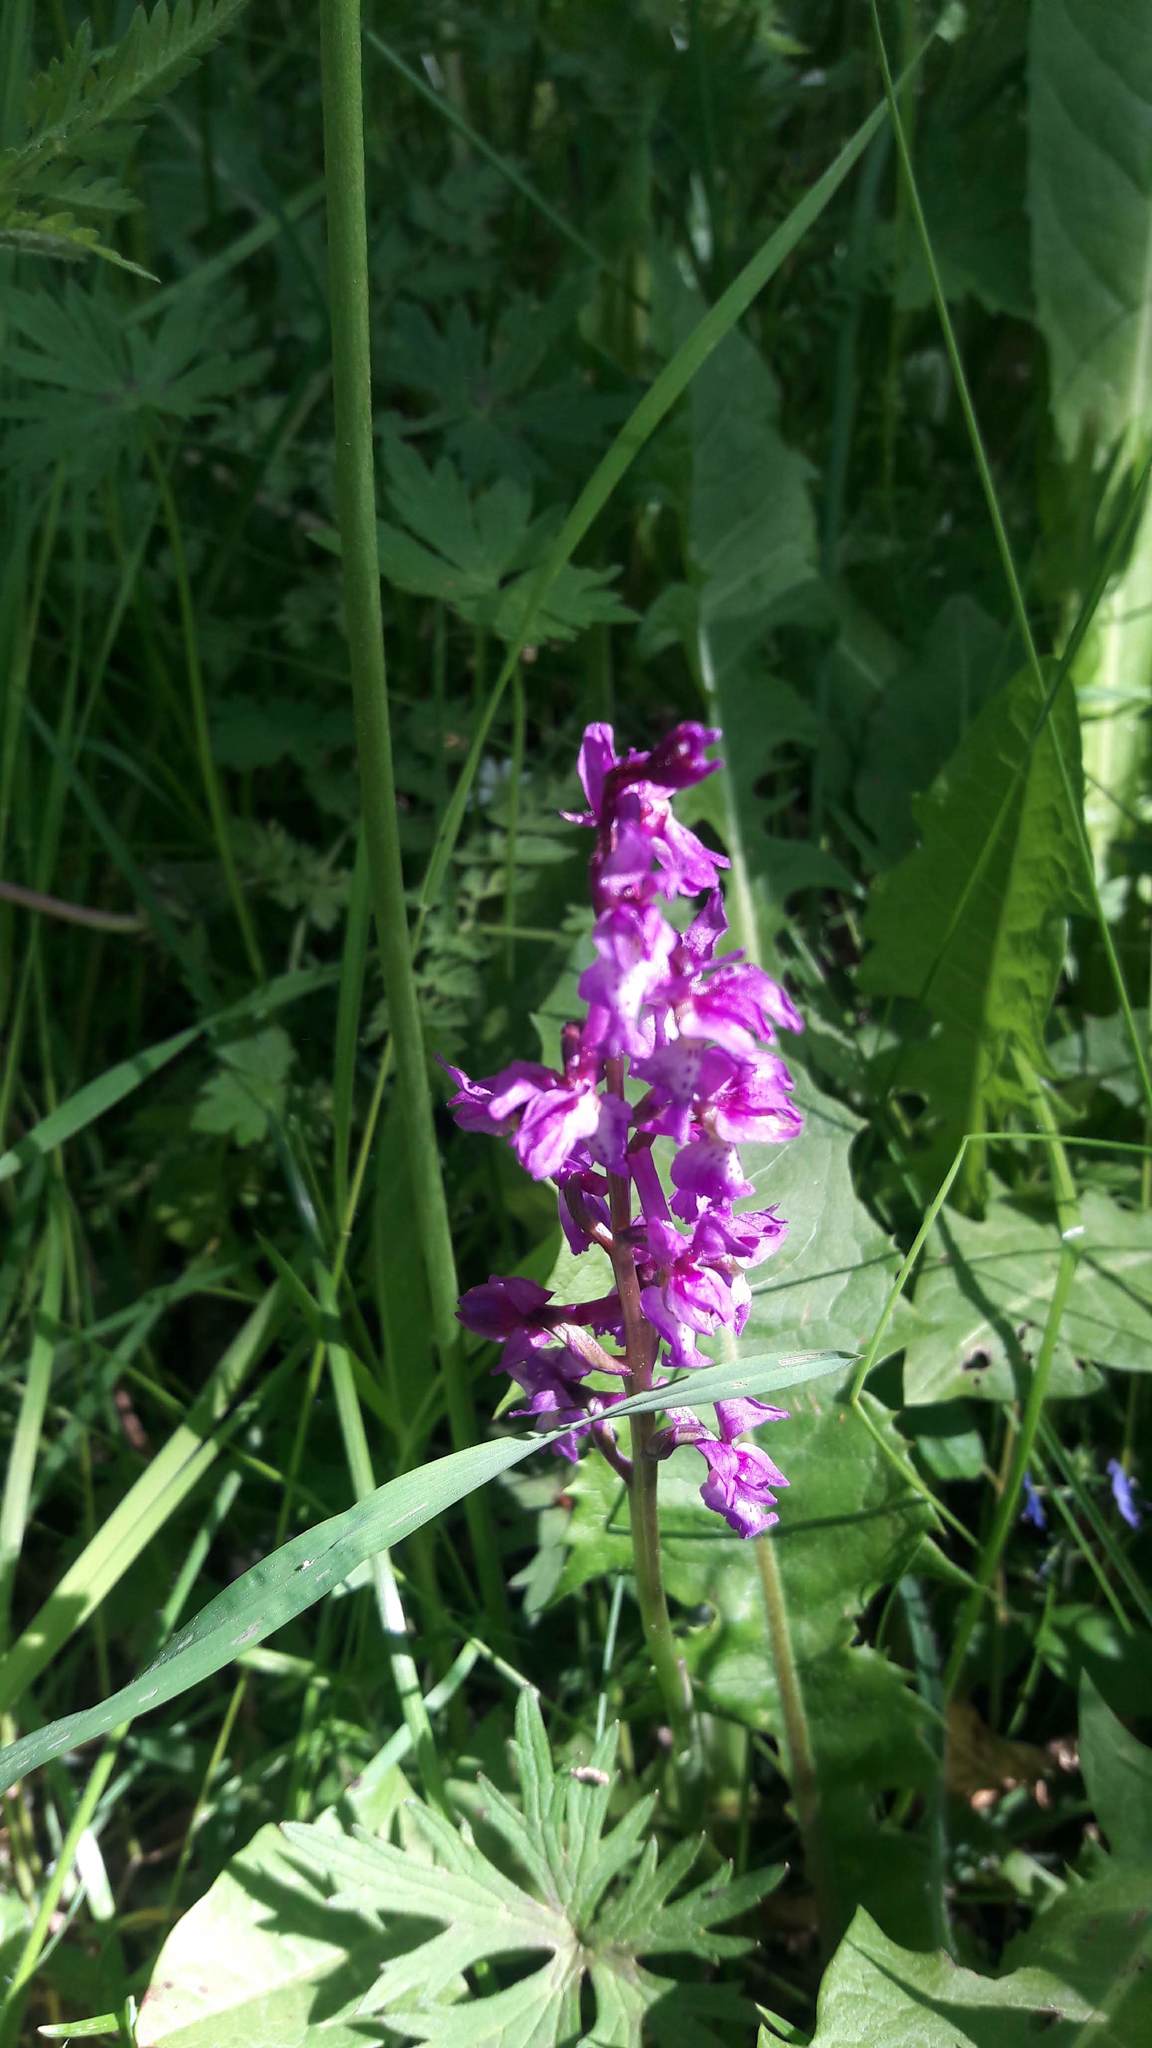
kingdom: Plantae
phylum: Tracheophyta
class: Liliopsida
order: Asparagales
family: Orchidaceae
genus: Orchis
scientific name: Orchis mascula
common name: Early-purple orchid
